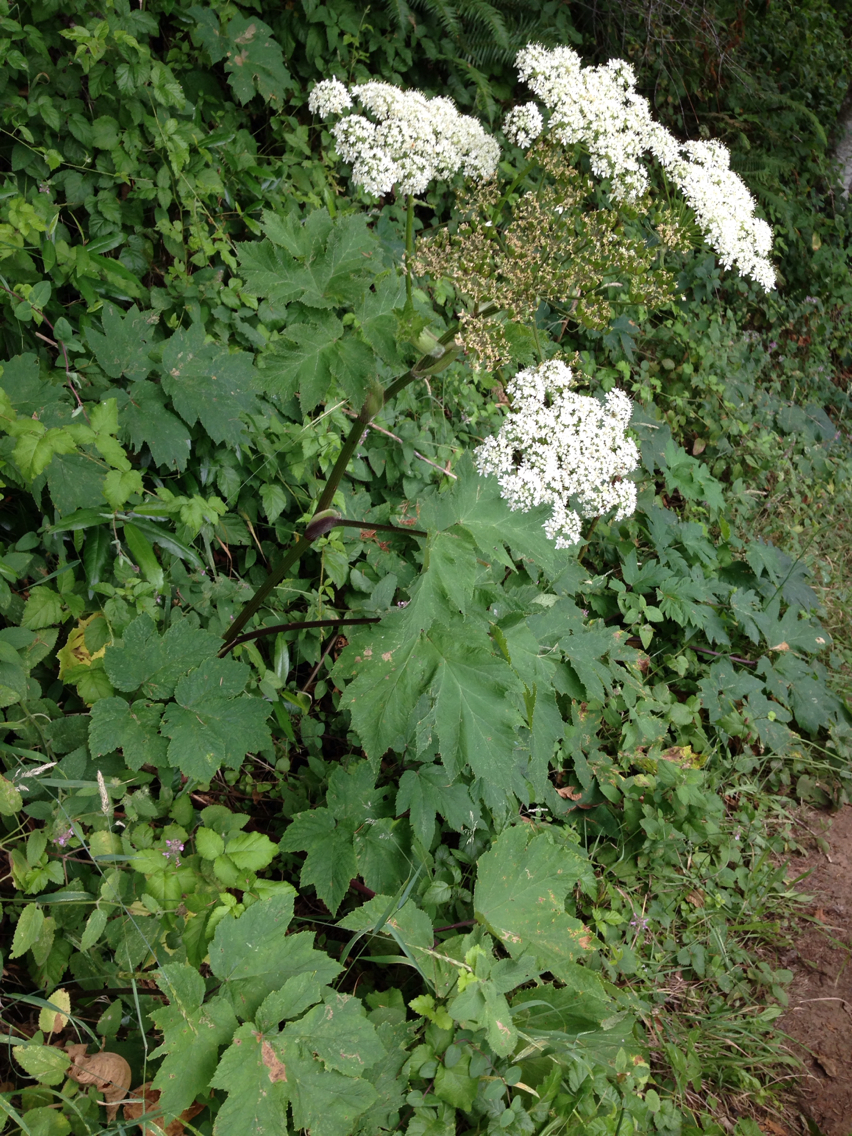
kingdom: Plantae
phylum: Tracheophyta
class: Magnoliopsida
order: Apiales
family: Apiaceae
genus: Heracleum
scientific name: Heracleum maximum
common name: American cow parsnip
